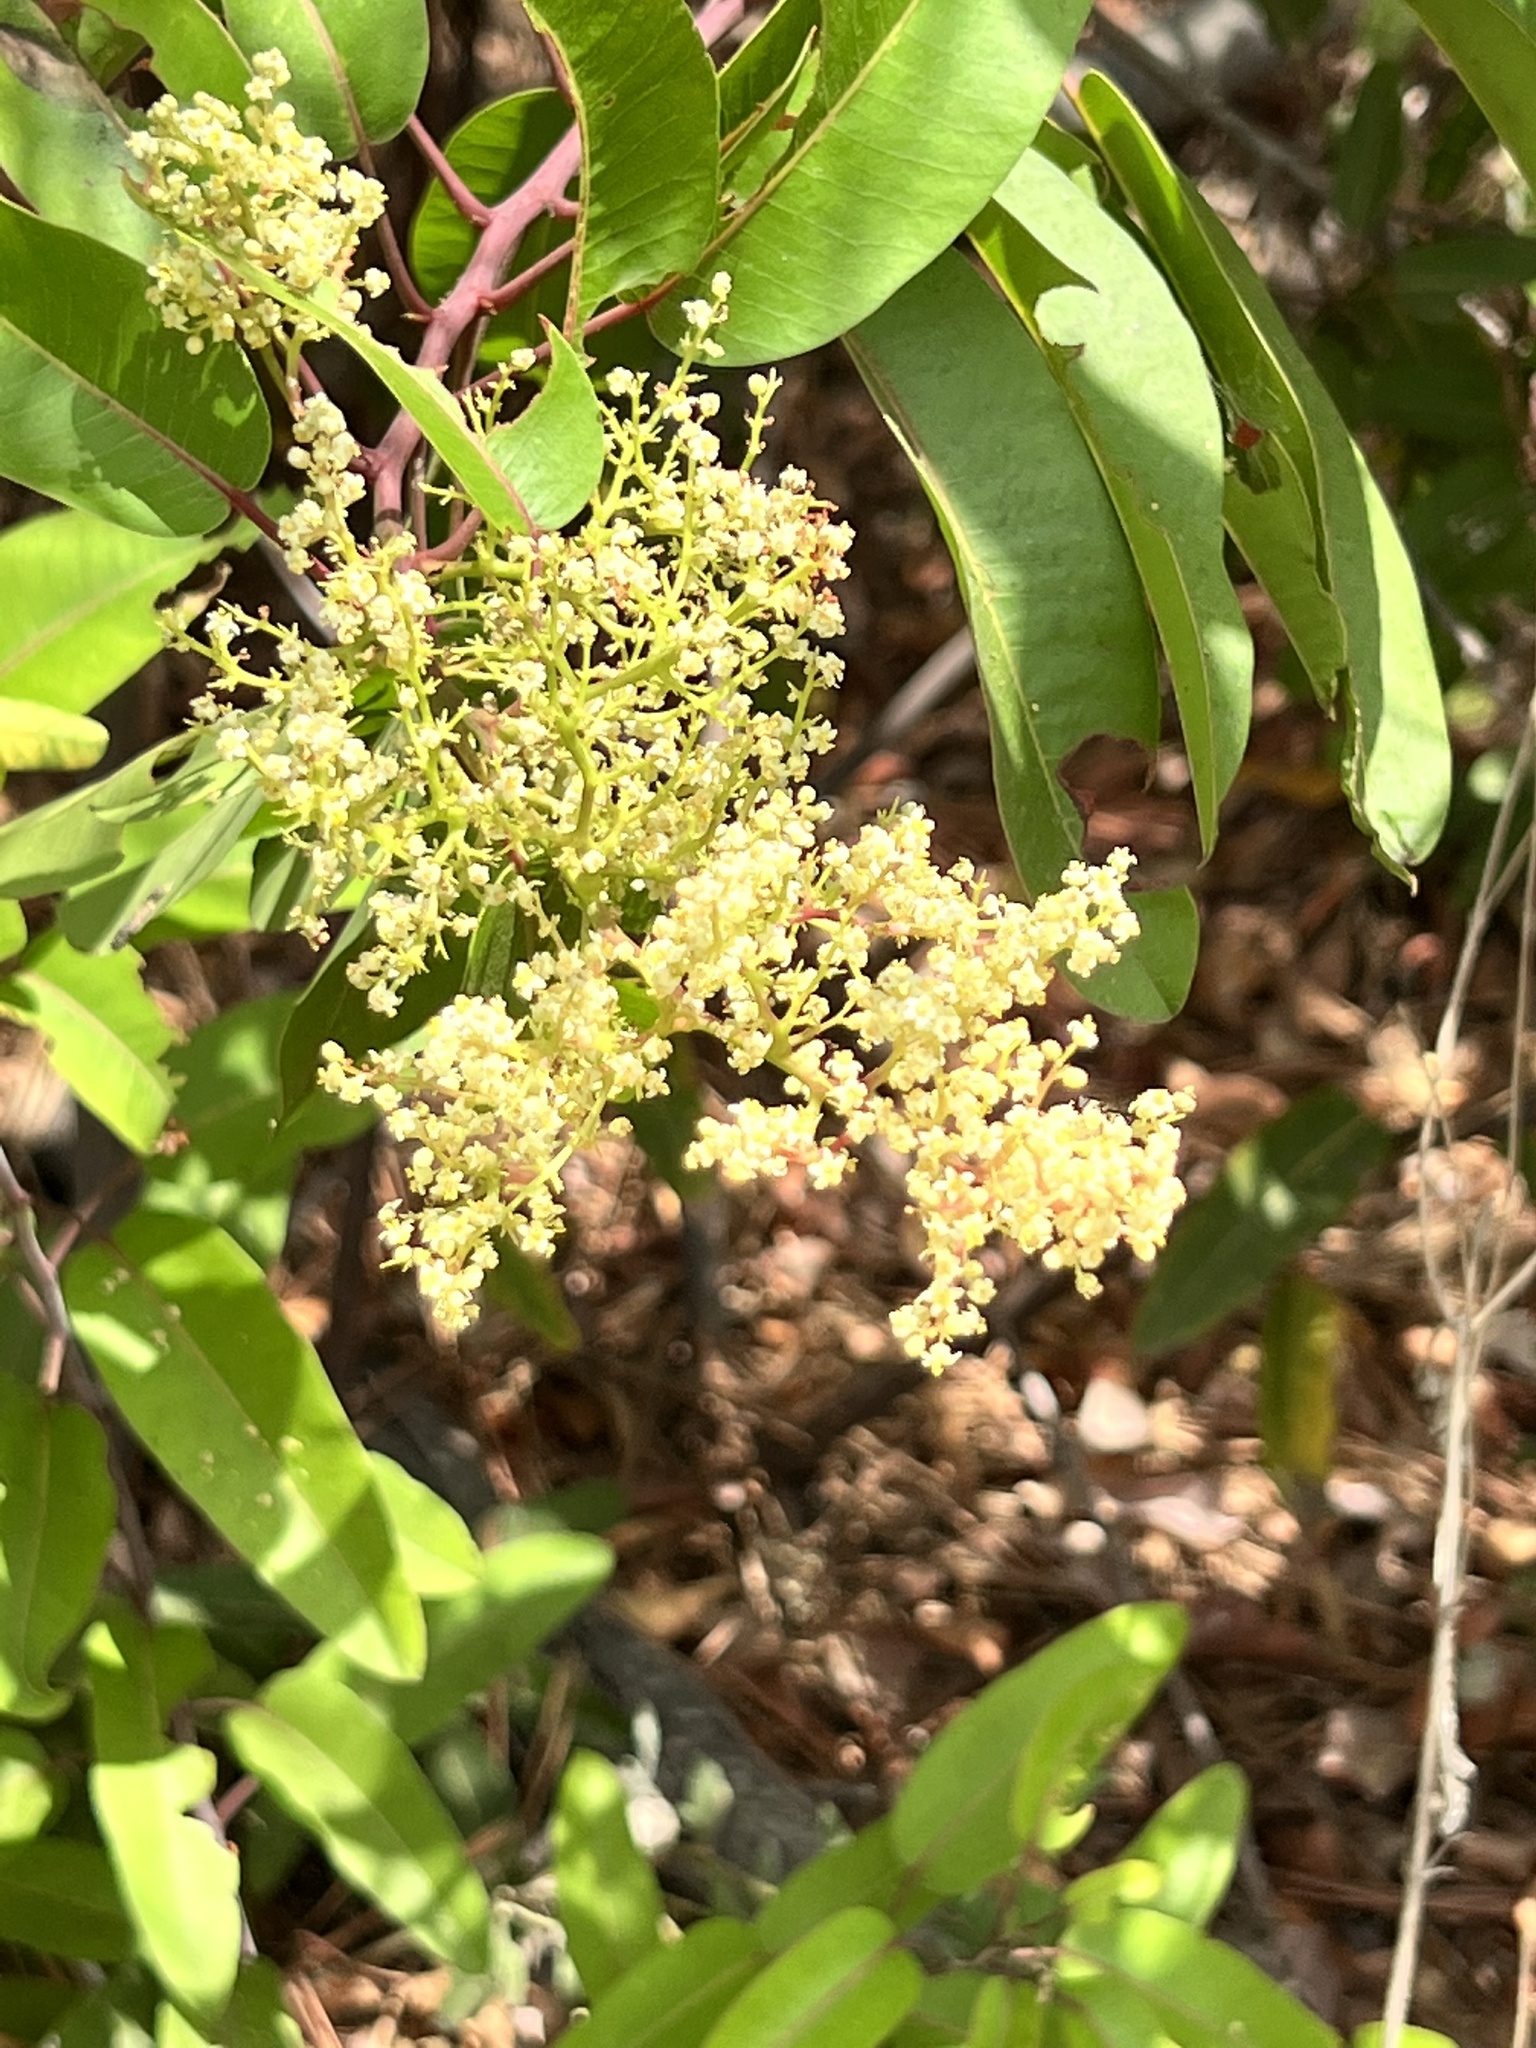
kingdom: Plantae
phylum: Tracheophyta
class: Magnoliopsida
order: Sapindales
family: Anacardiaceae
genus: Malosma
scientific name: Malosma laurina
